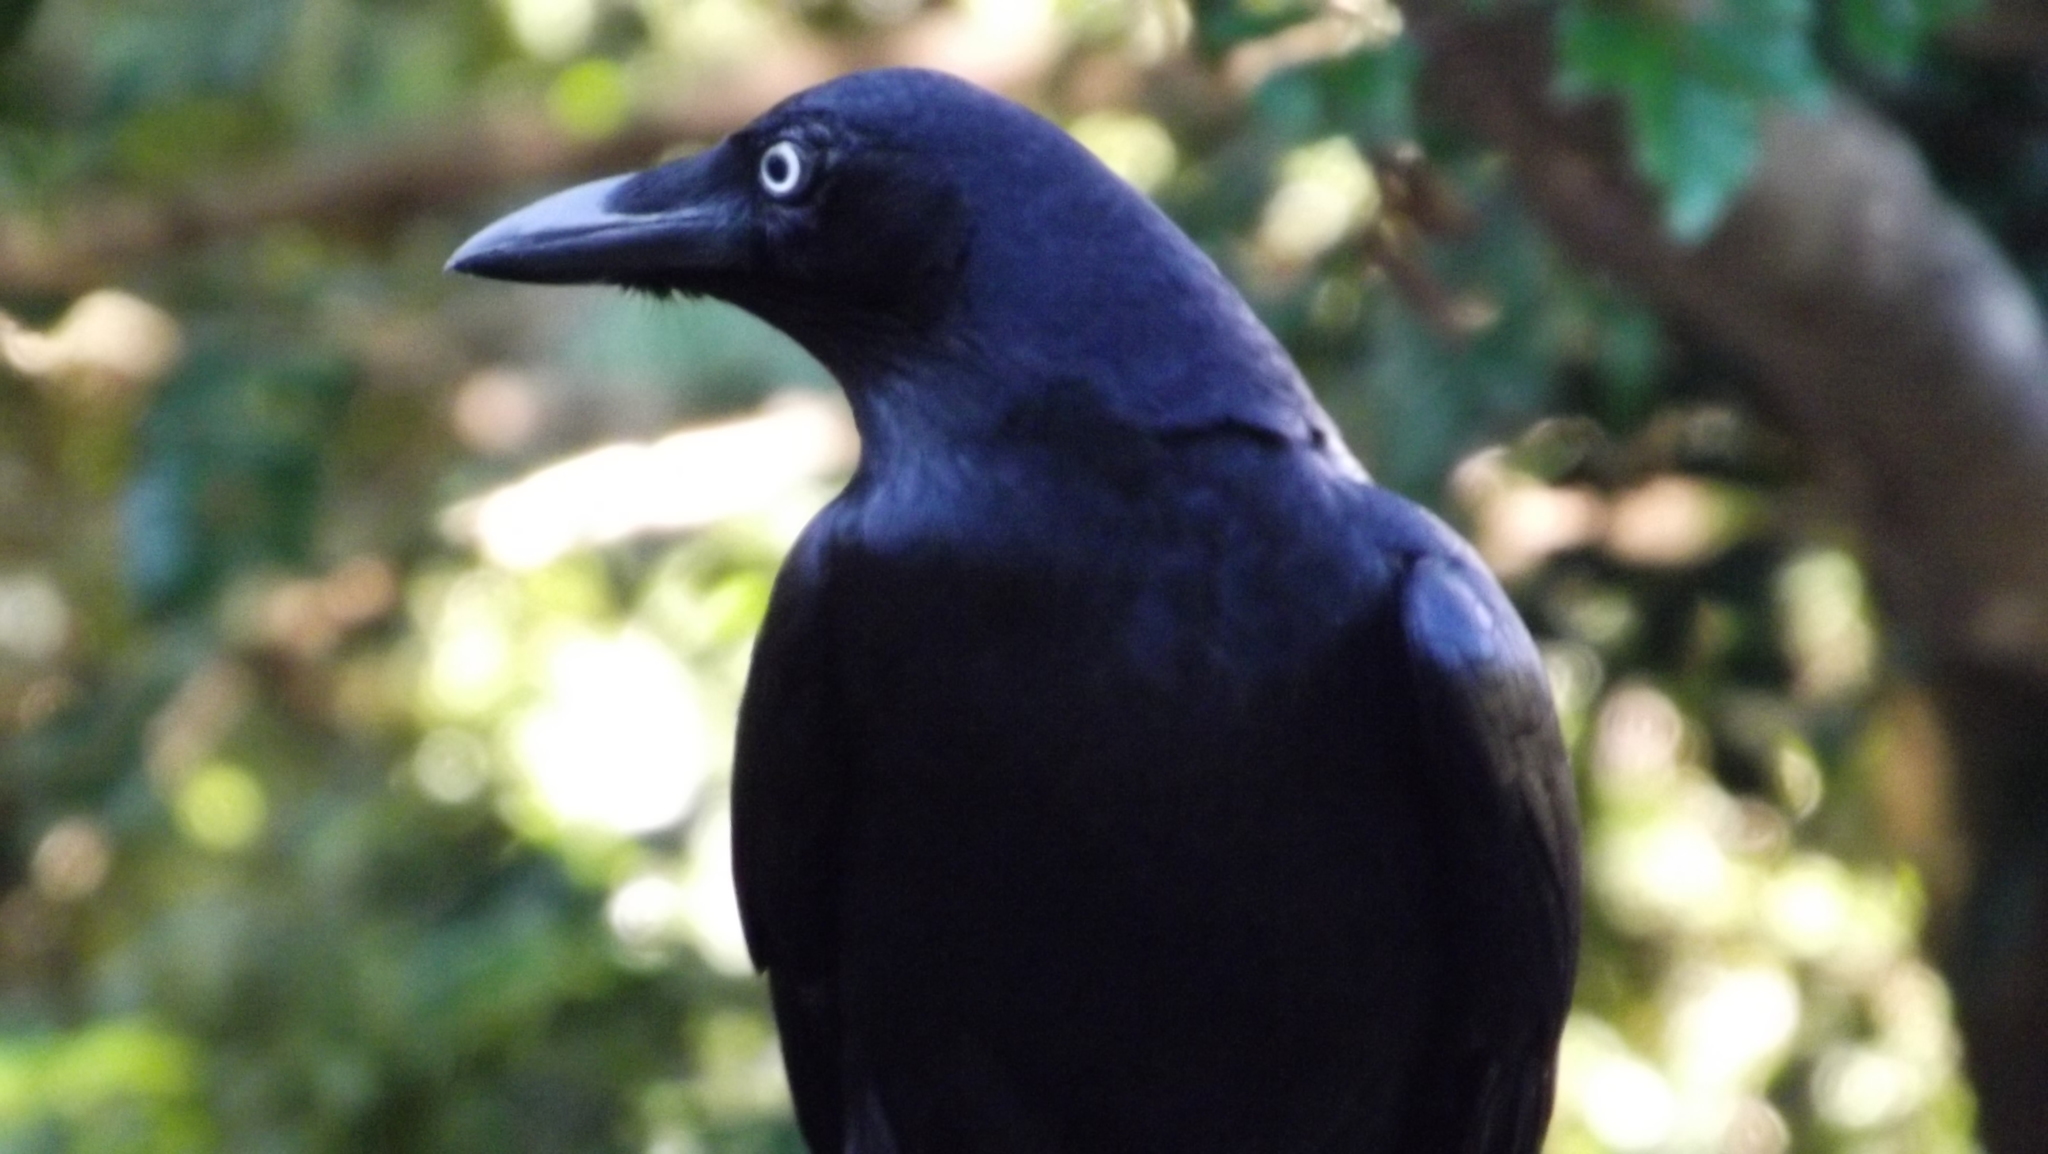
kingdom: Animalia
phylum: Chordata
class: Aves
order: Passeriformes
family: Corvidae
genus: Corvus
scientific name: Corvus orru
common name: Torresian crow
